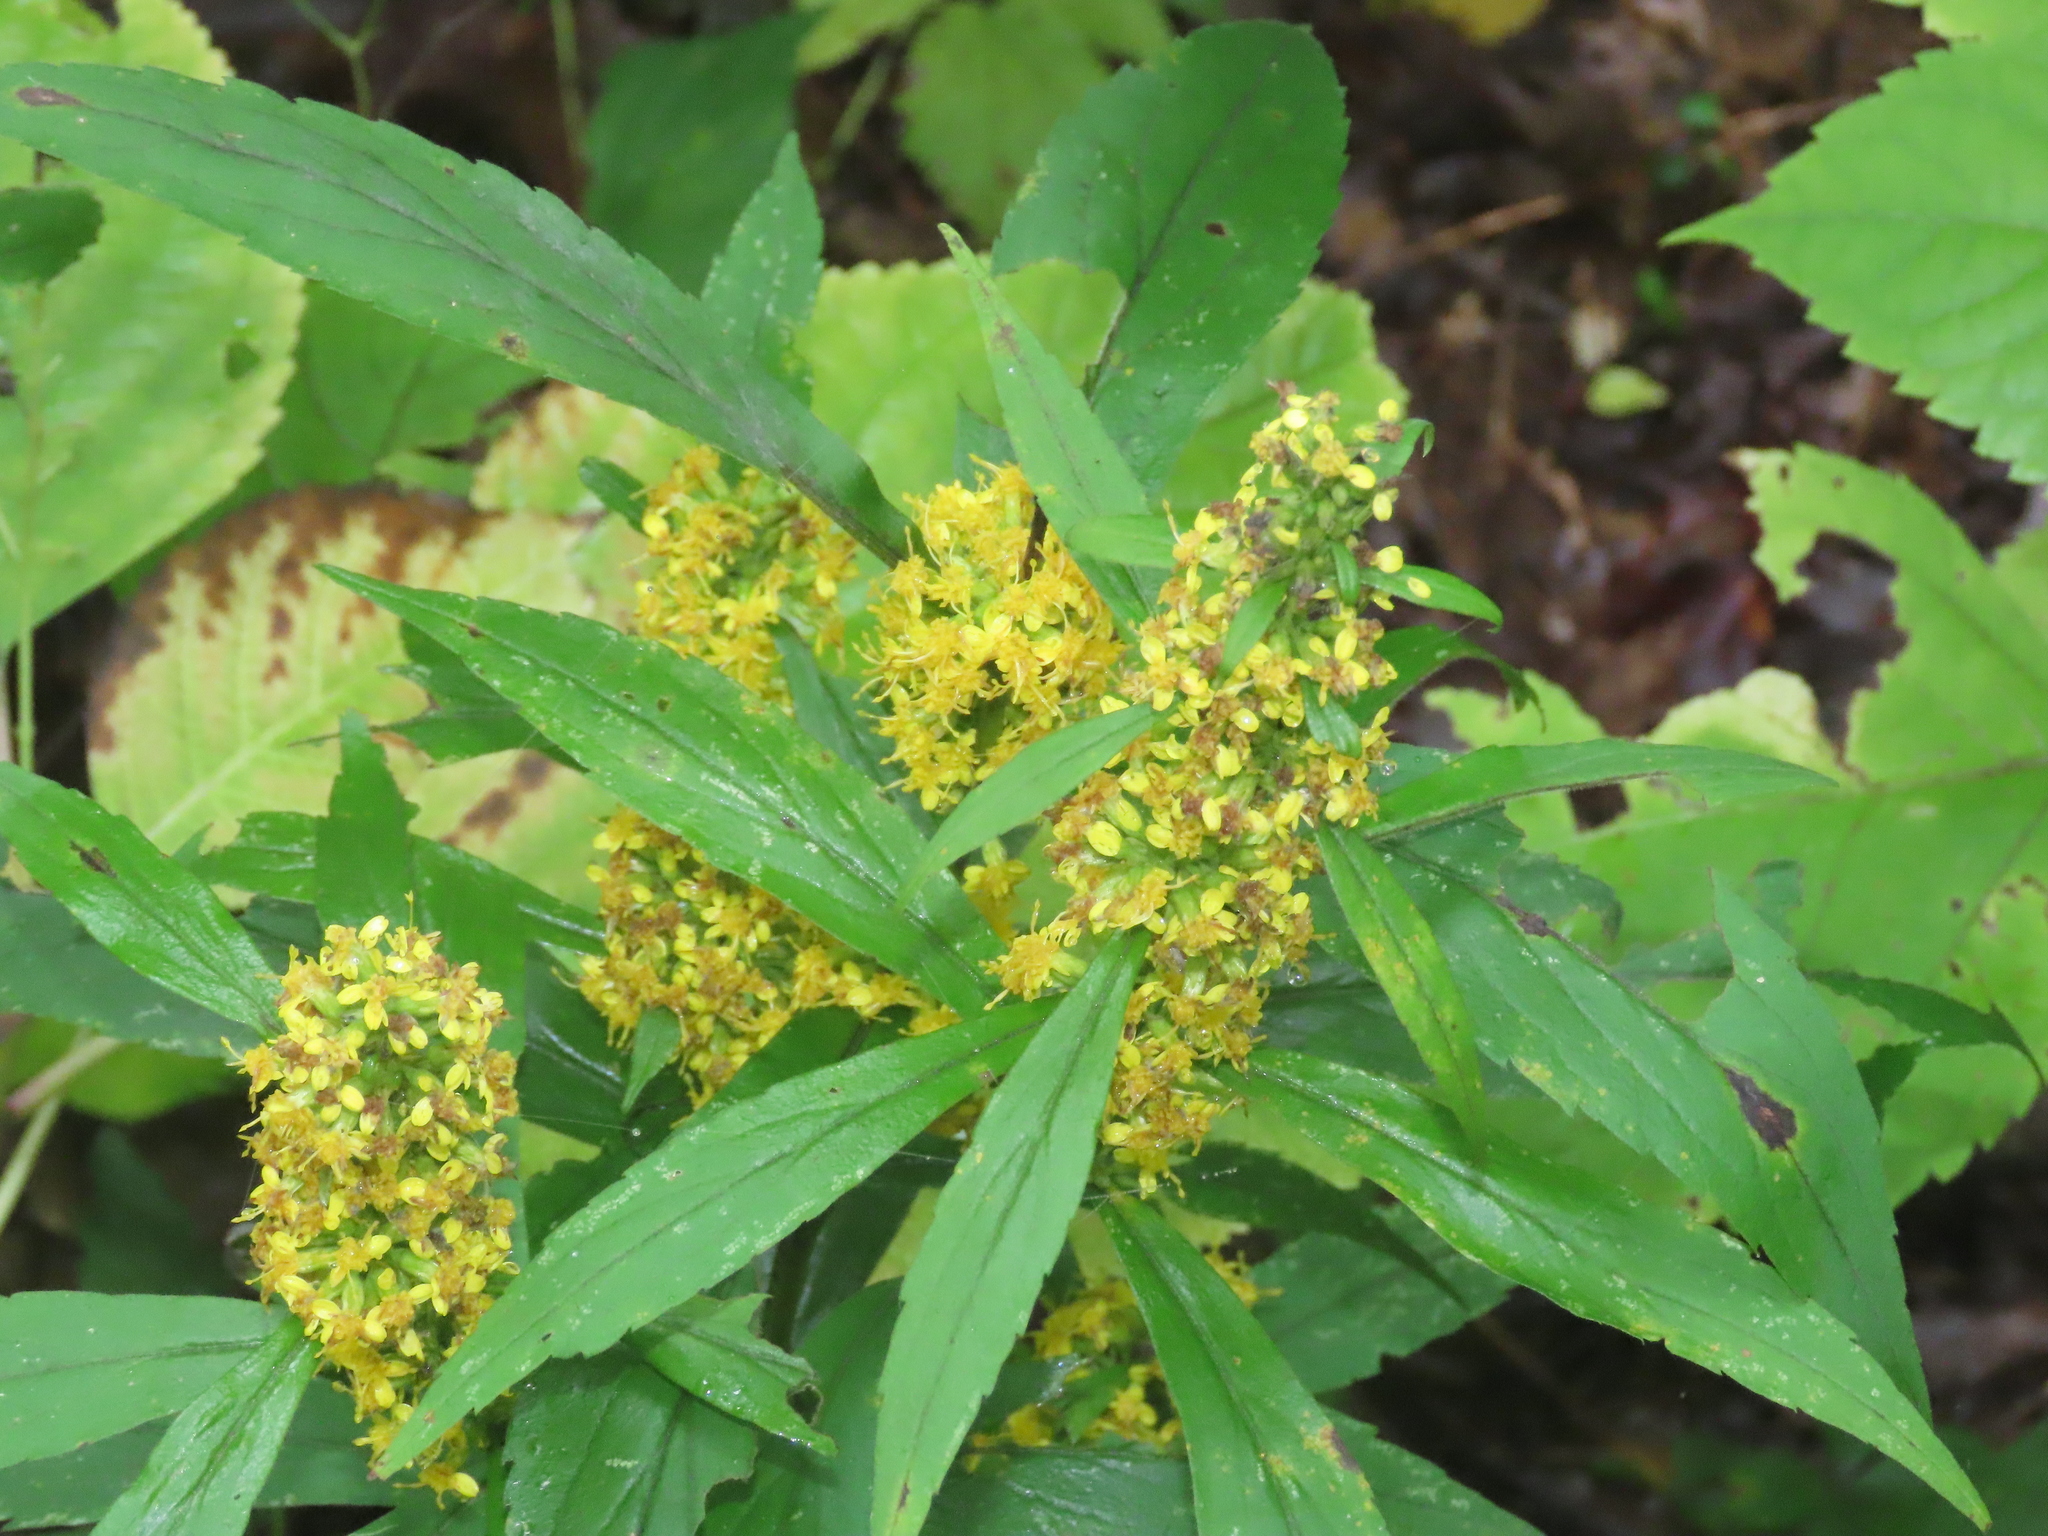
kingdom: Plantae
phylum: Tracheophyta
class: Magnoliopsida
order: Asterales
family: Asteraceae
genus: Solidago
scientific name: Solidago caesia
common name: Woodland goldenrod
